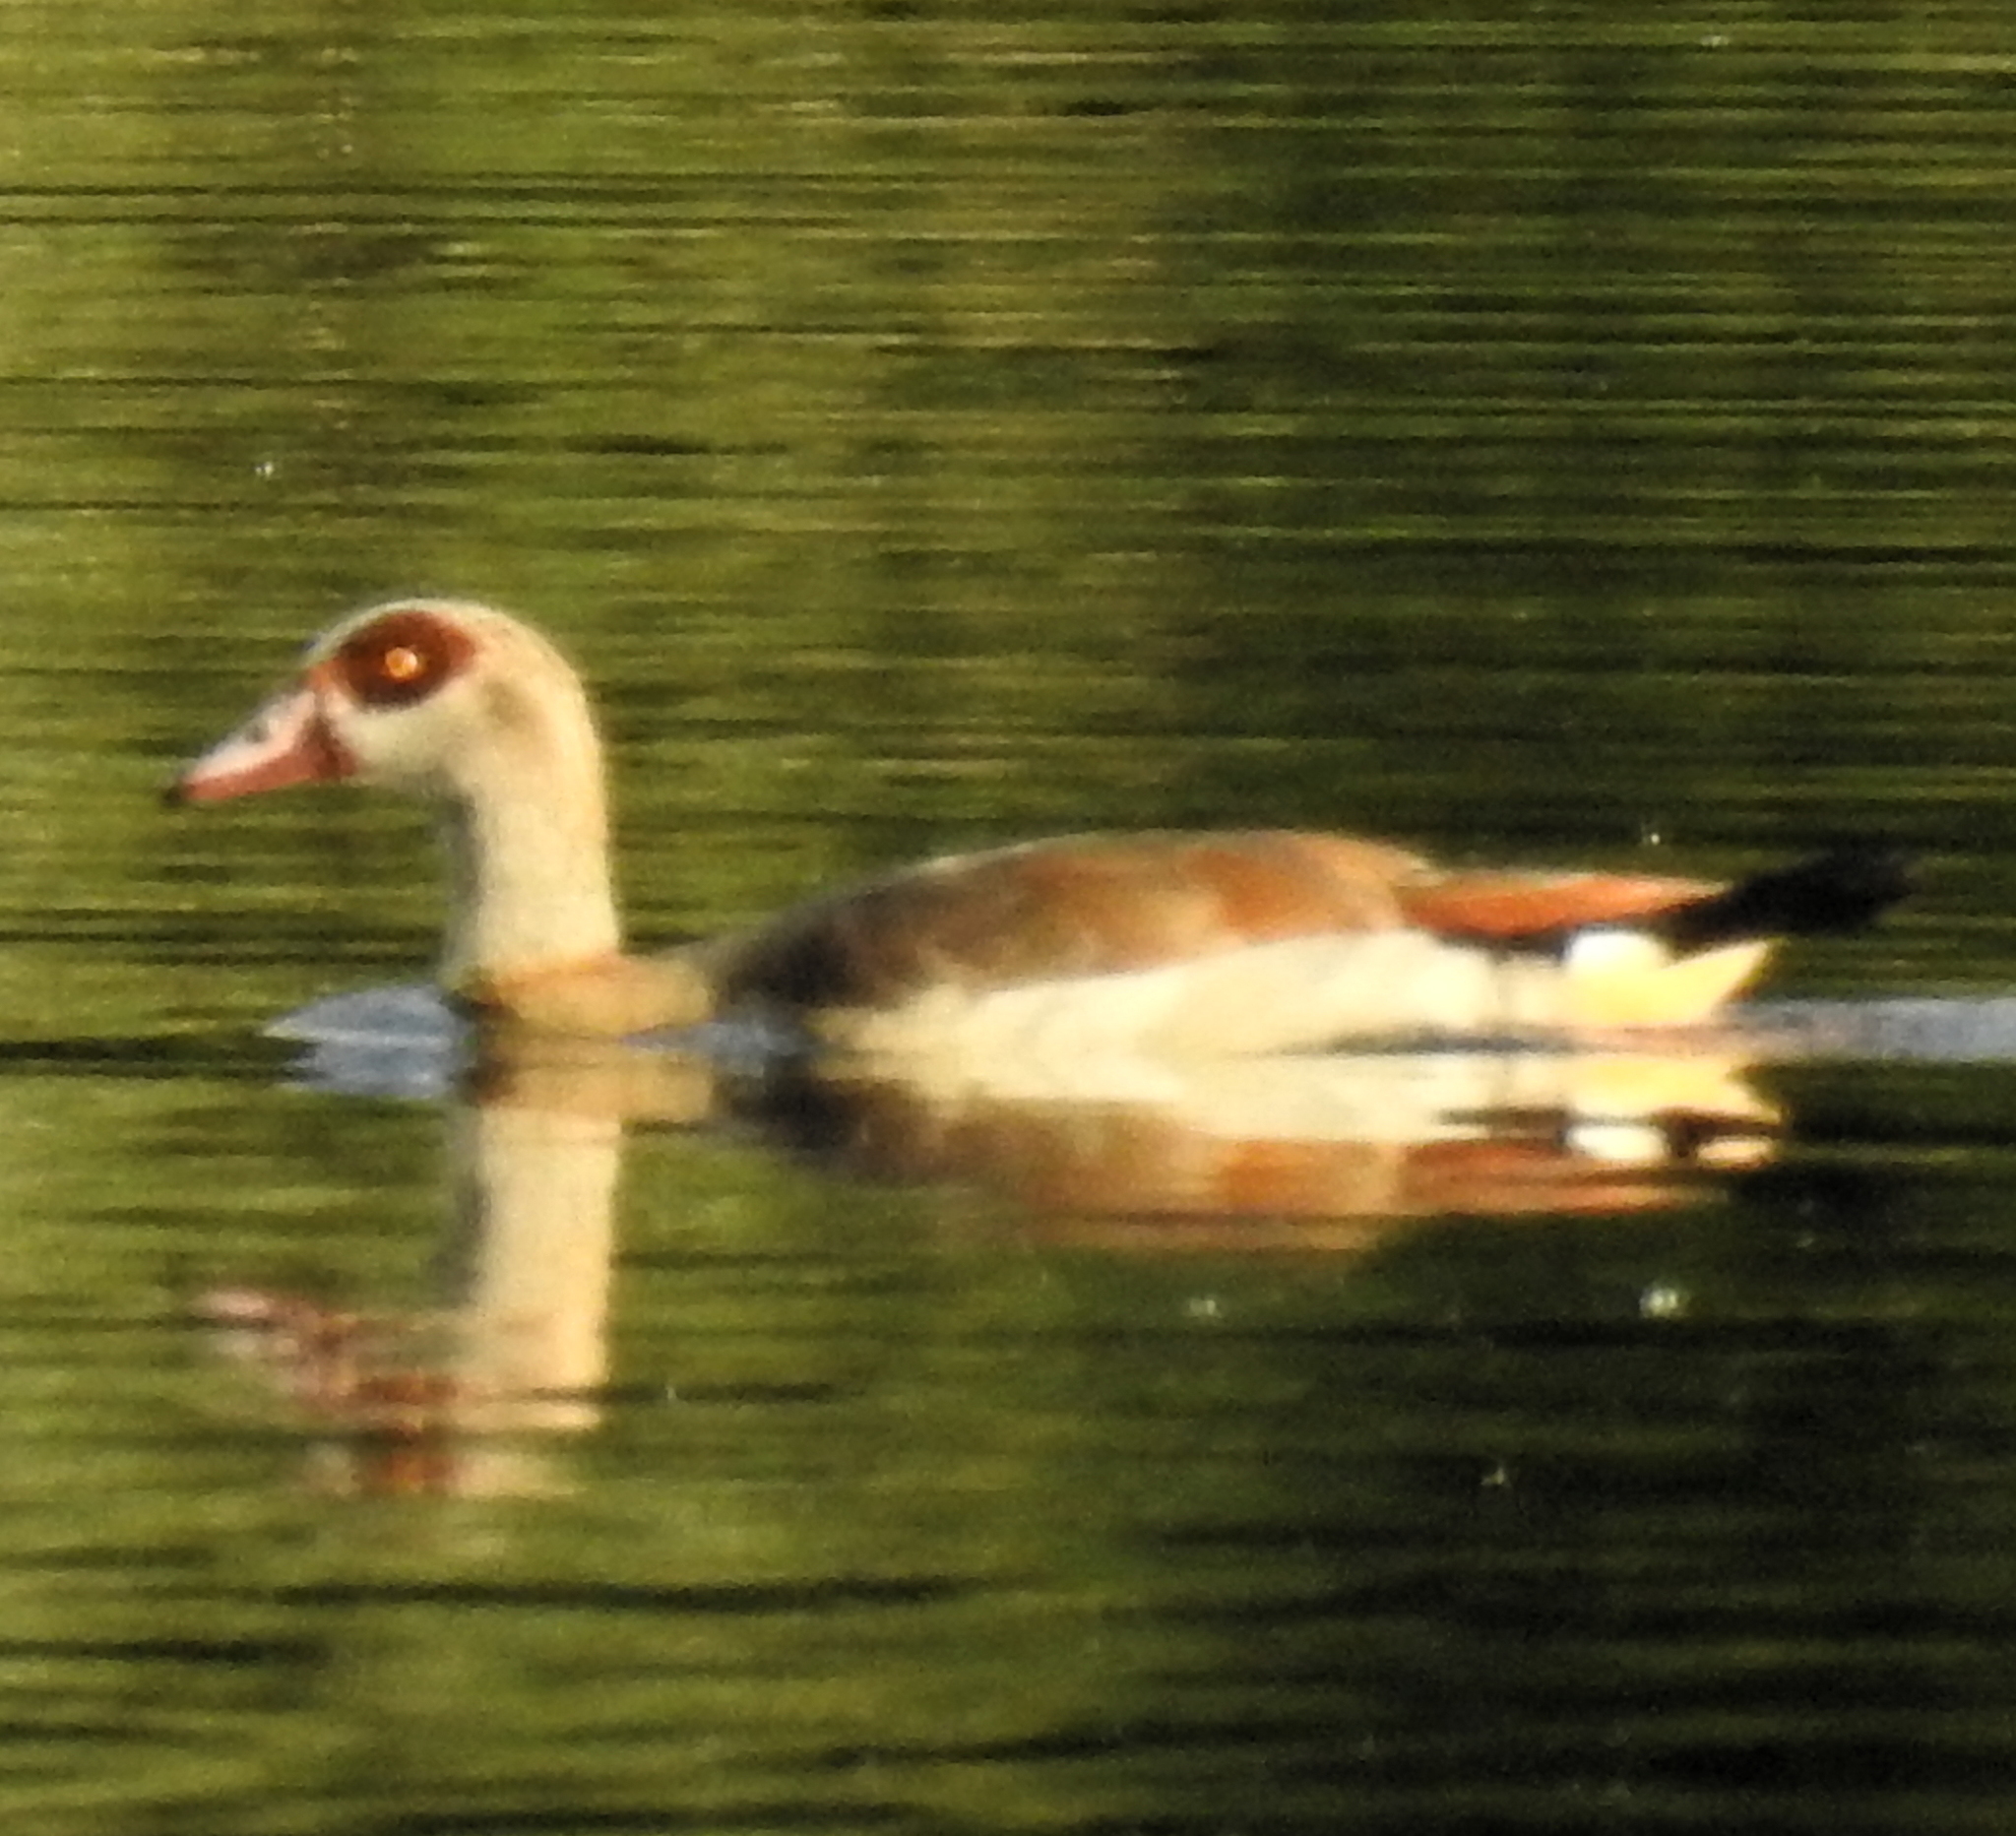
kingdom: Animalia
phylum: Chordata
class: Aves
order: Anseriformes
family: Anatidae
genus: Alopochen
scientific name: Alopochen aegyptiaca
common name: Egyptian goose
